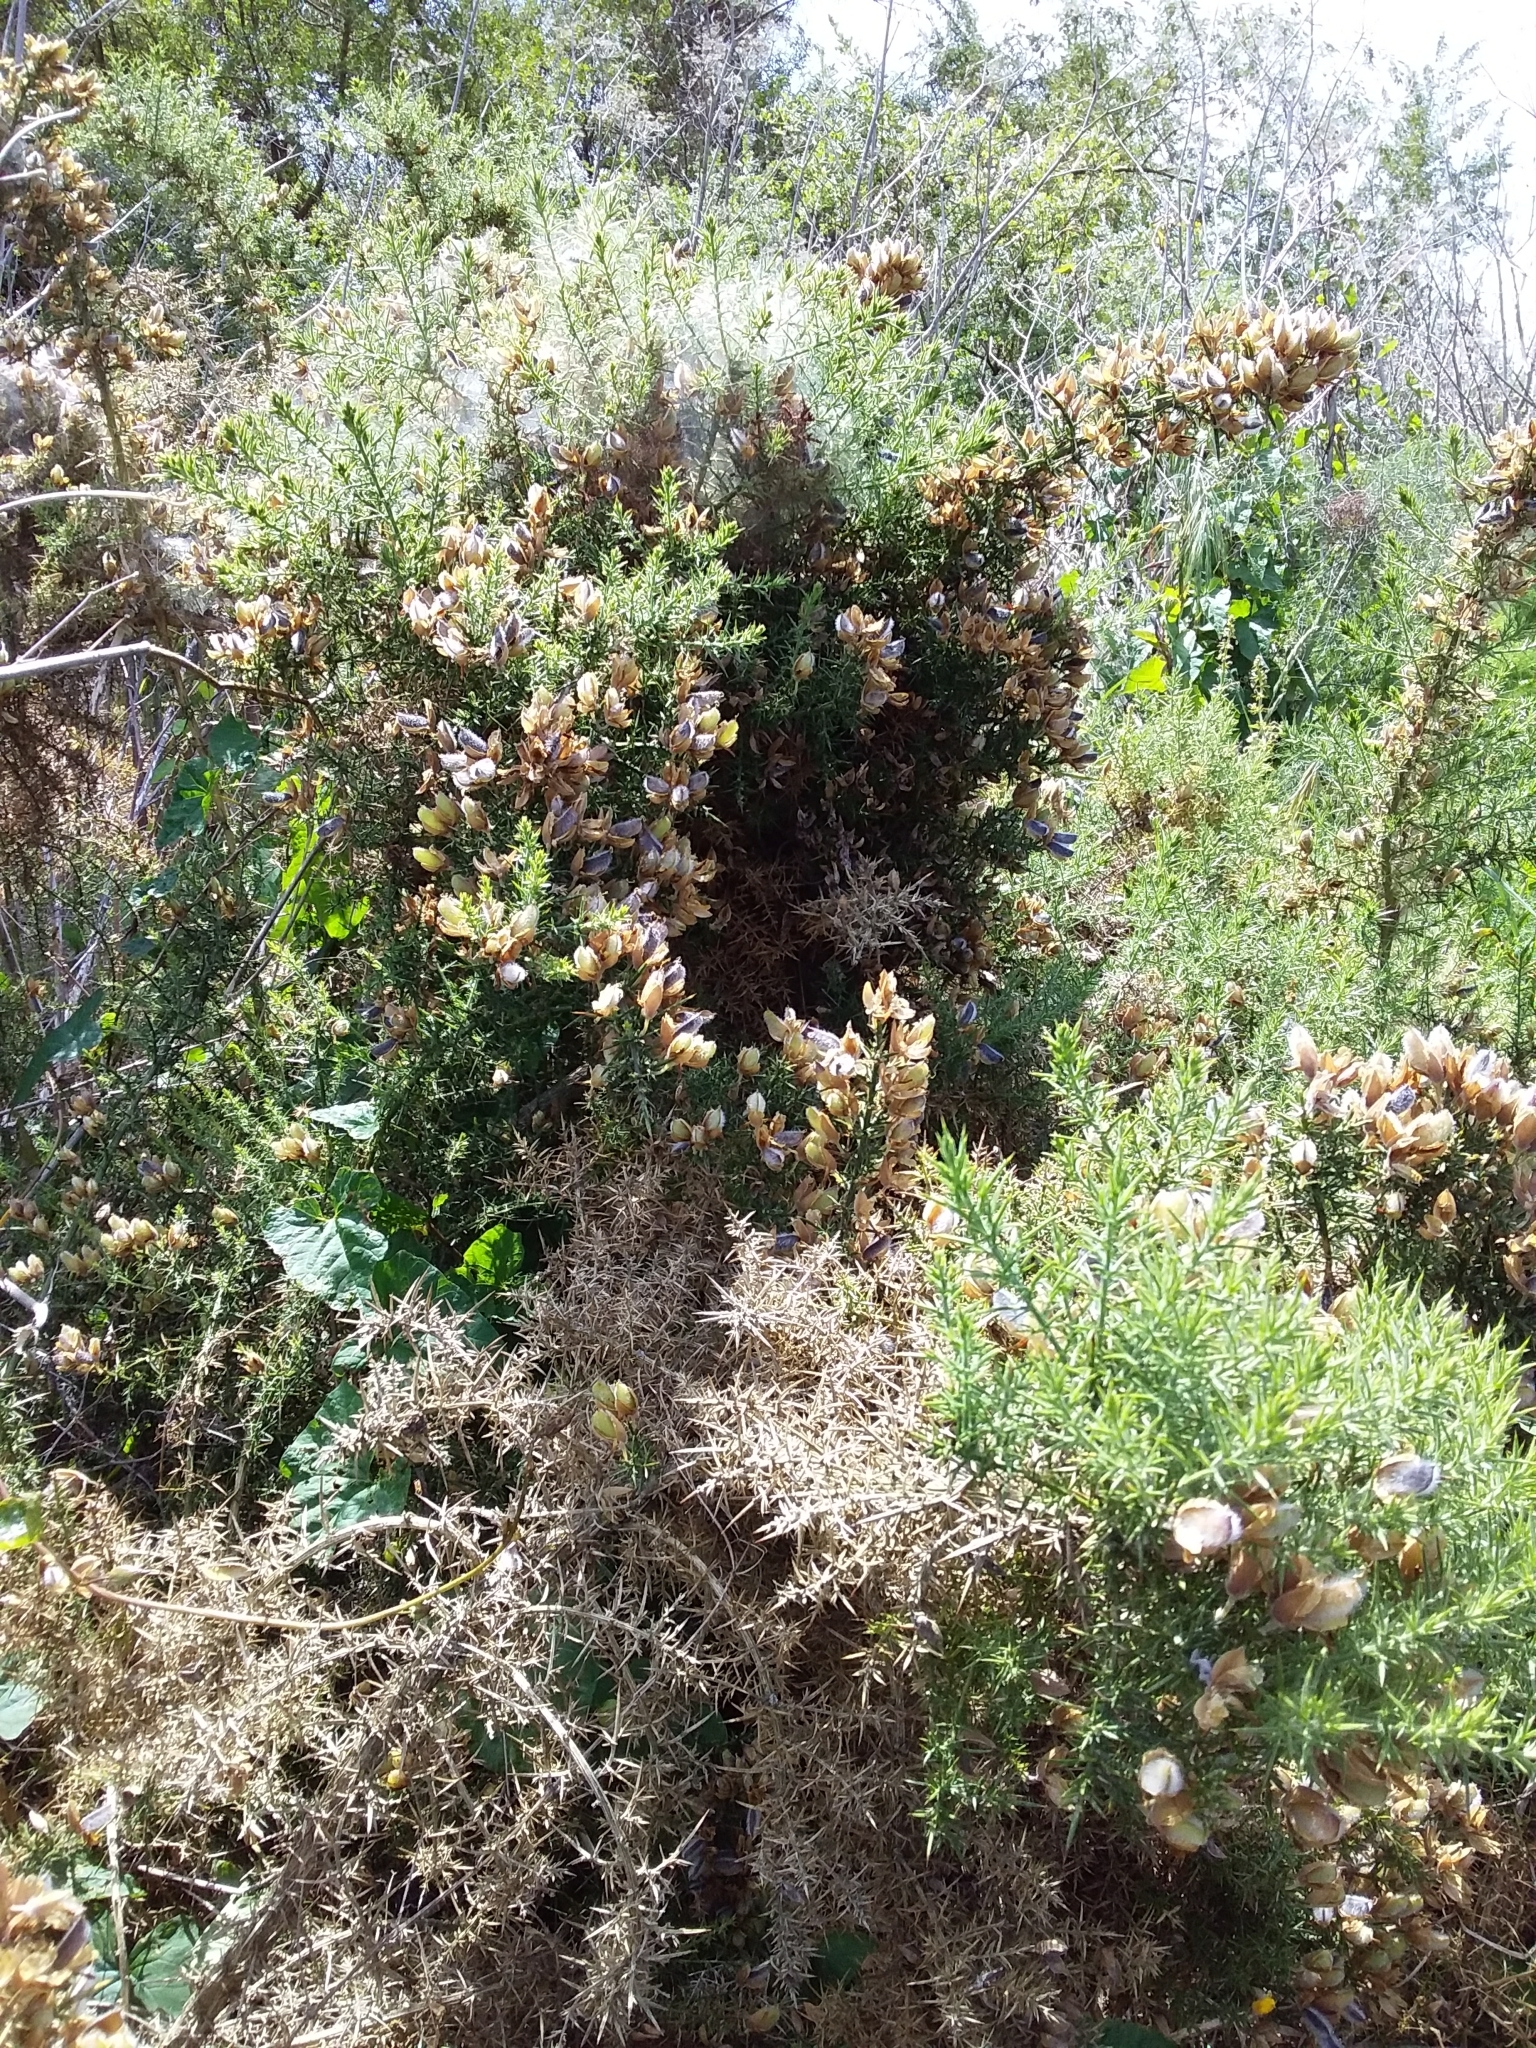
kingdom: Plantae
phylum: Tracheophyta
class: Magnoliopsida
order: Fabales
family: Fabaceae
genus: Ulex
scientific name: Ulex europaeus
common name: Common gorse
